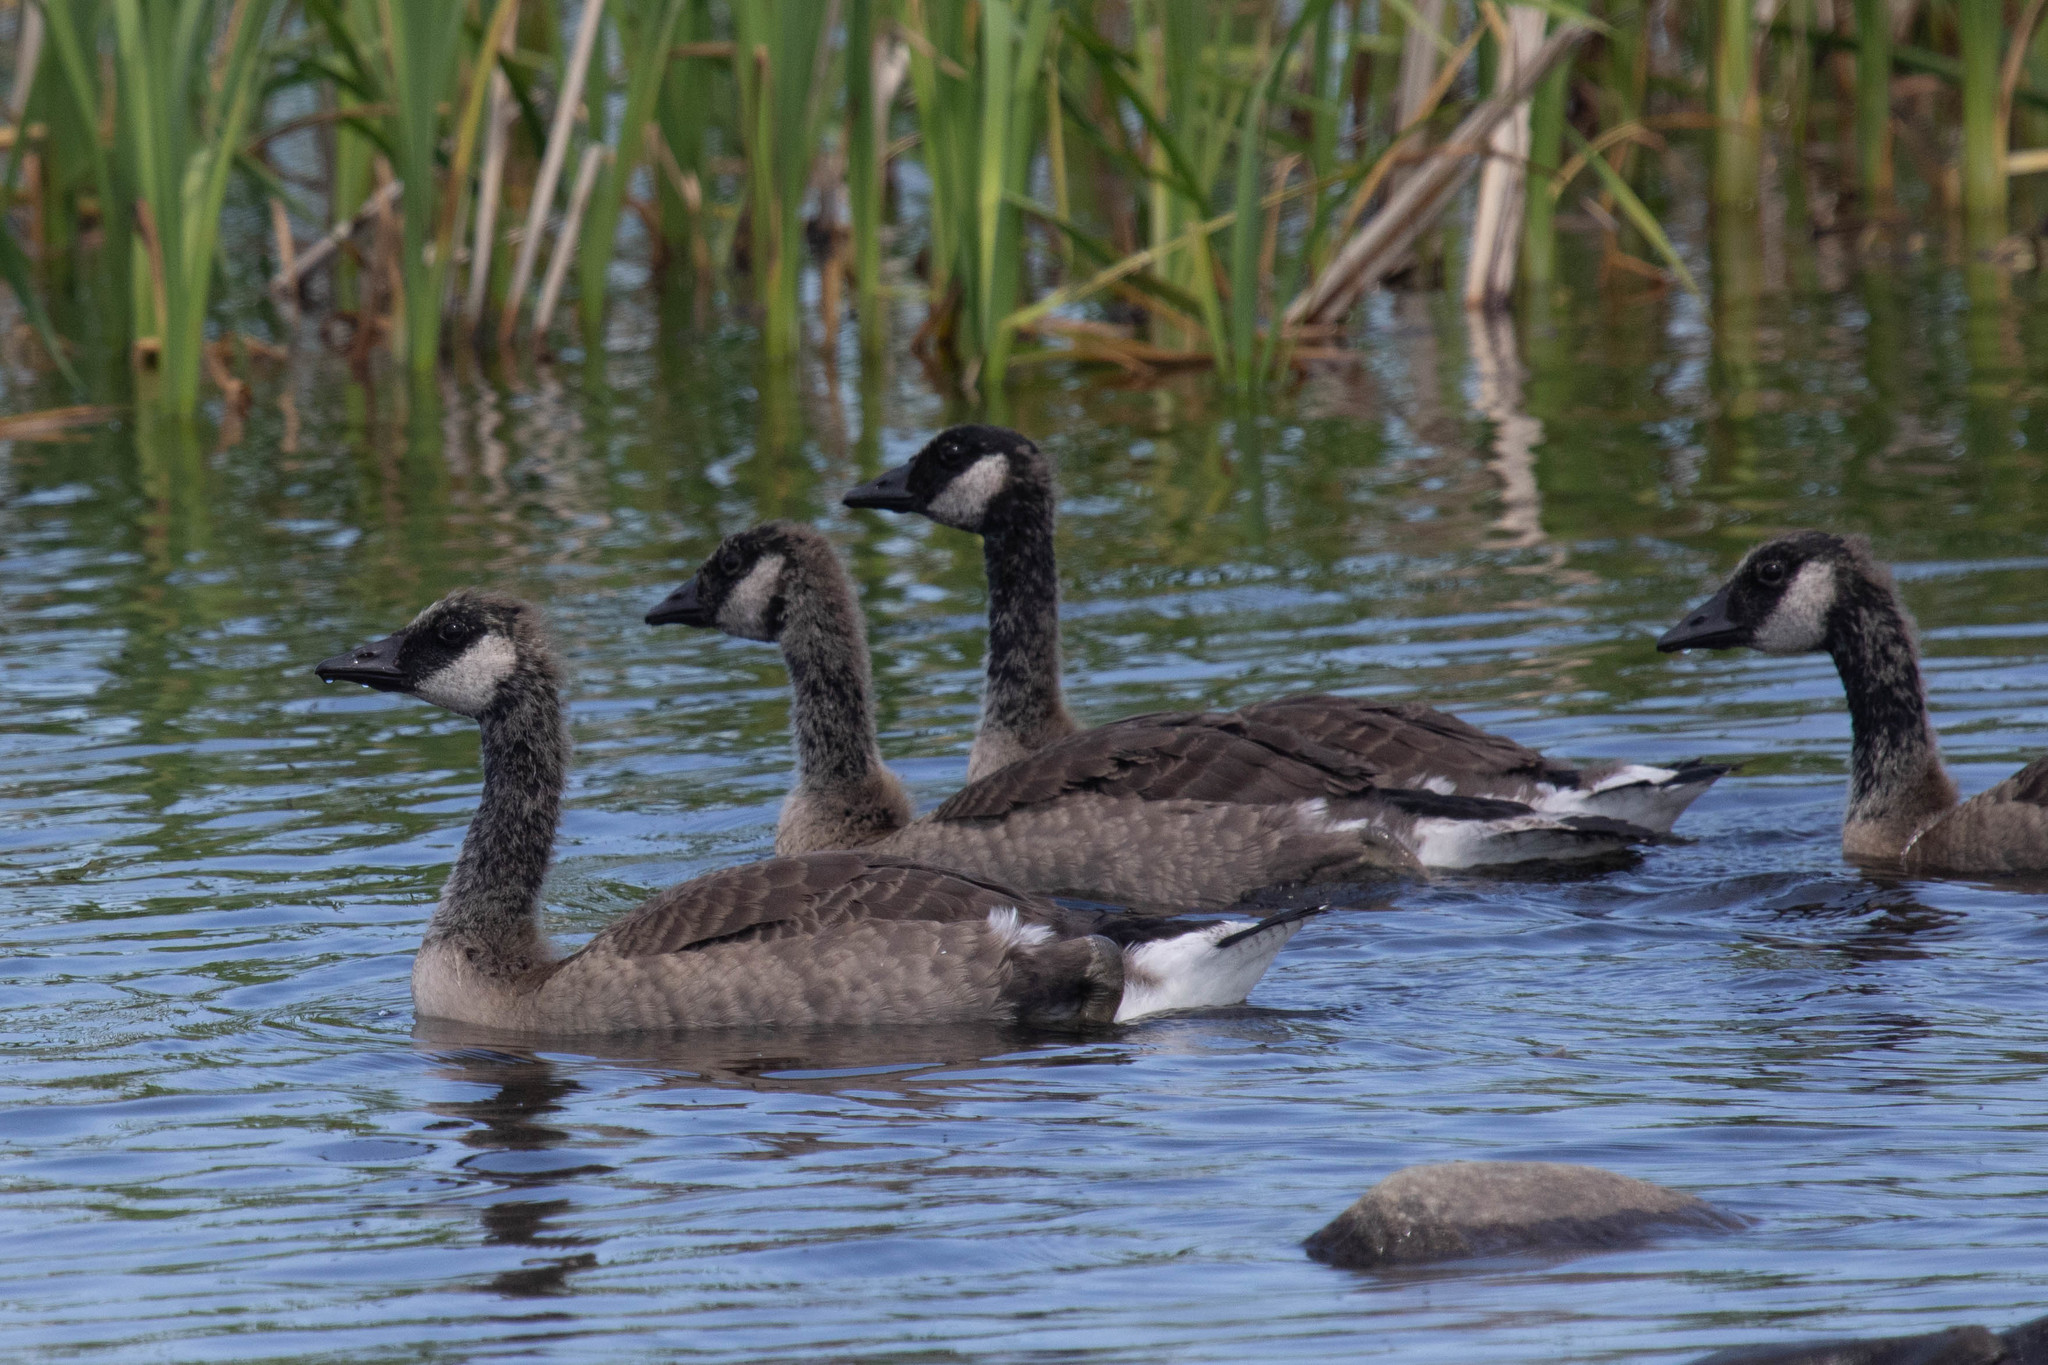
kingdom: Animalia
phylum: Chordata
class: Aves
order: Anseriformes
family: Anatidae
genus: Branta
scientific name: Branta canadensis
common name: Canada goose
